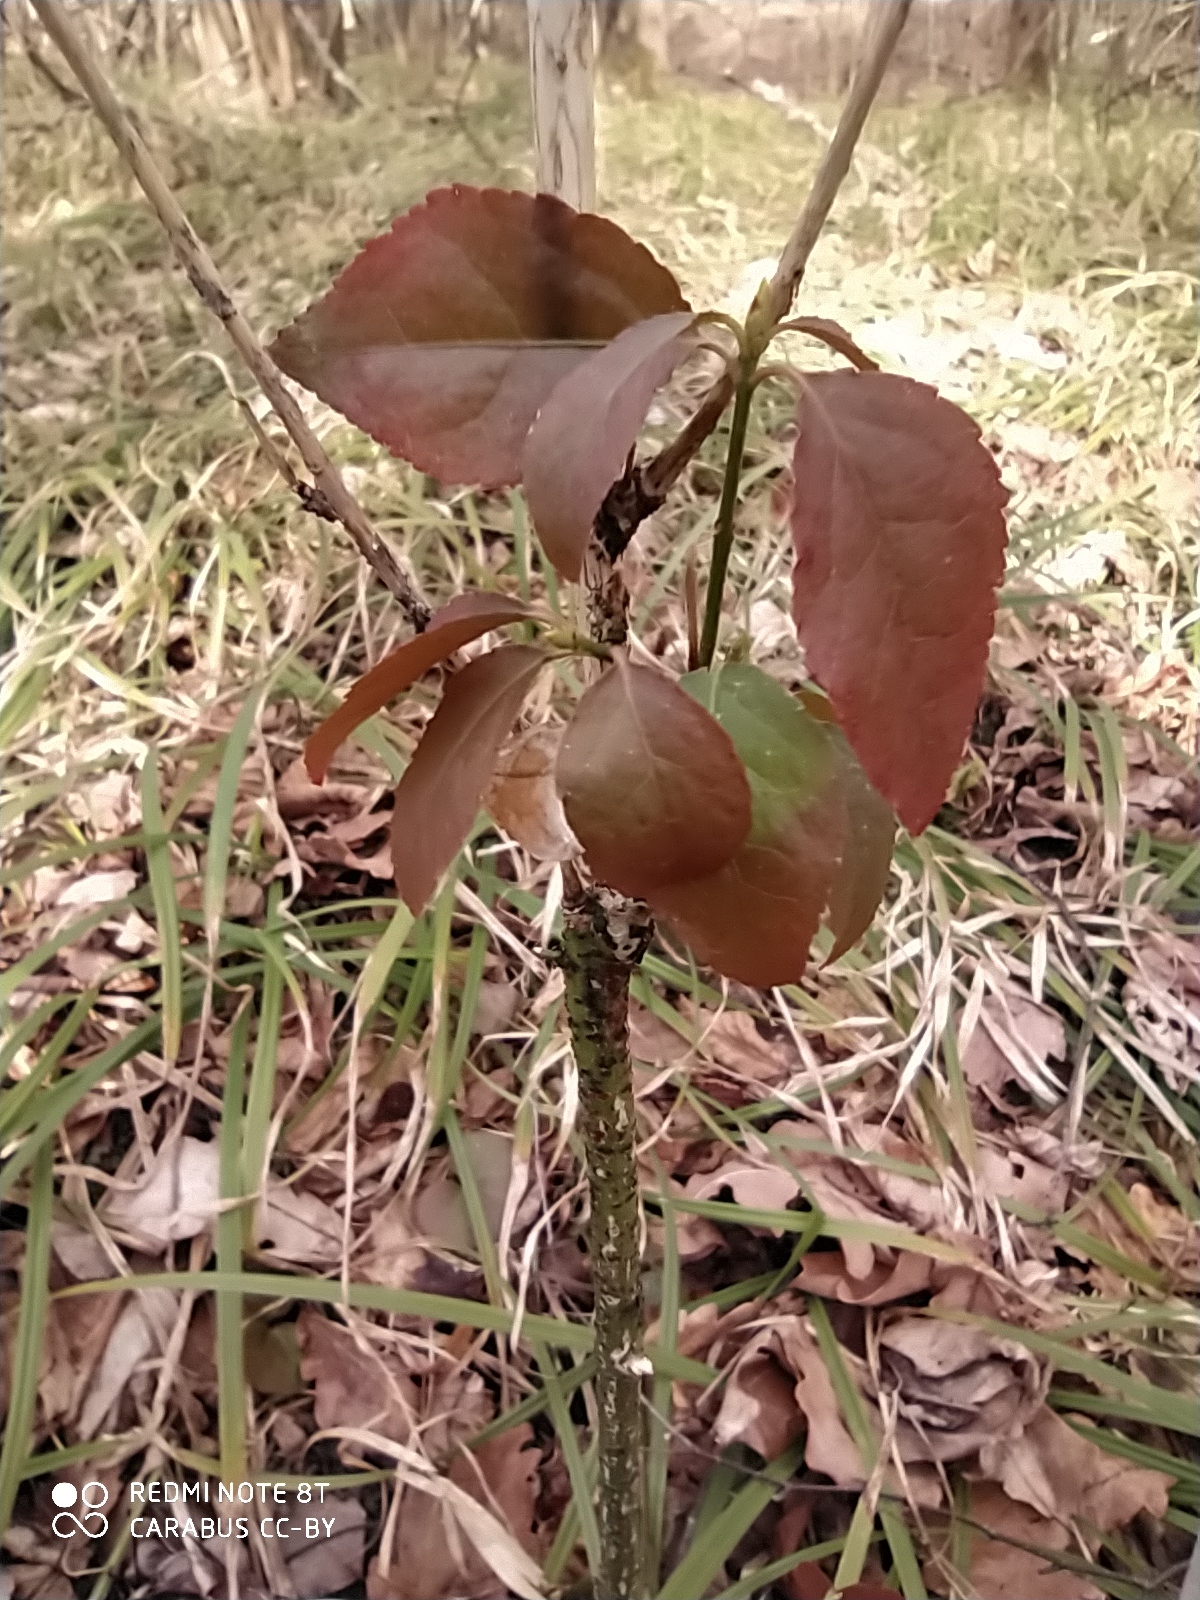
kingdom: Plantae
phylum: Tracheophyta
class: Magnoliopsida
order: Celastrales
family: Celastraceae
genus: Euonymus
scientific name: Euonymus verrucosus
